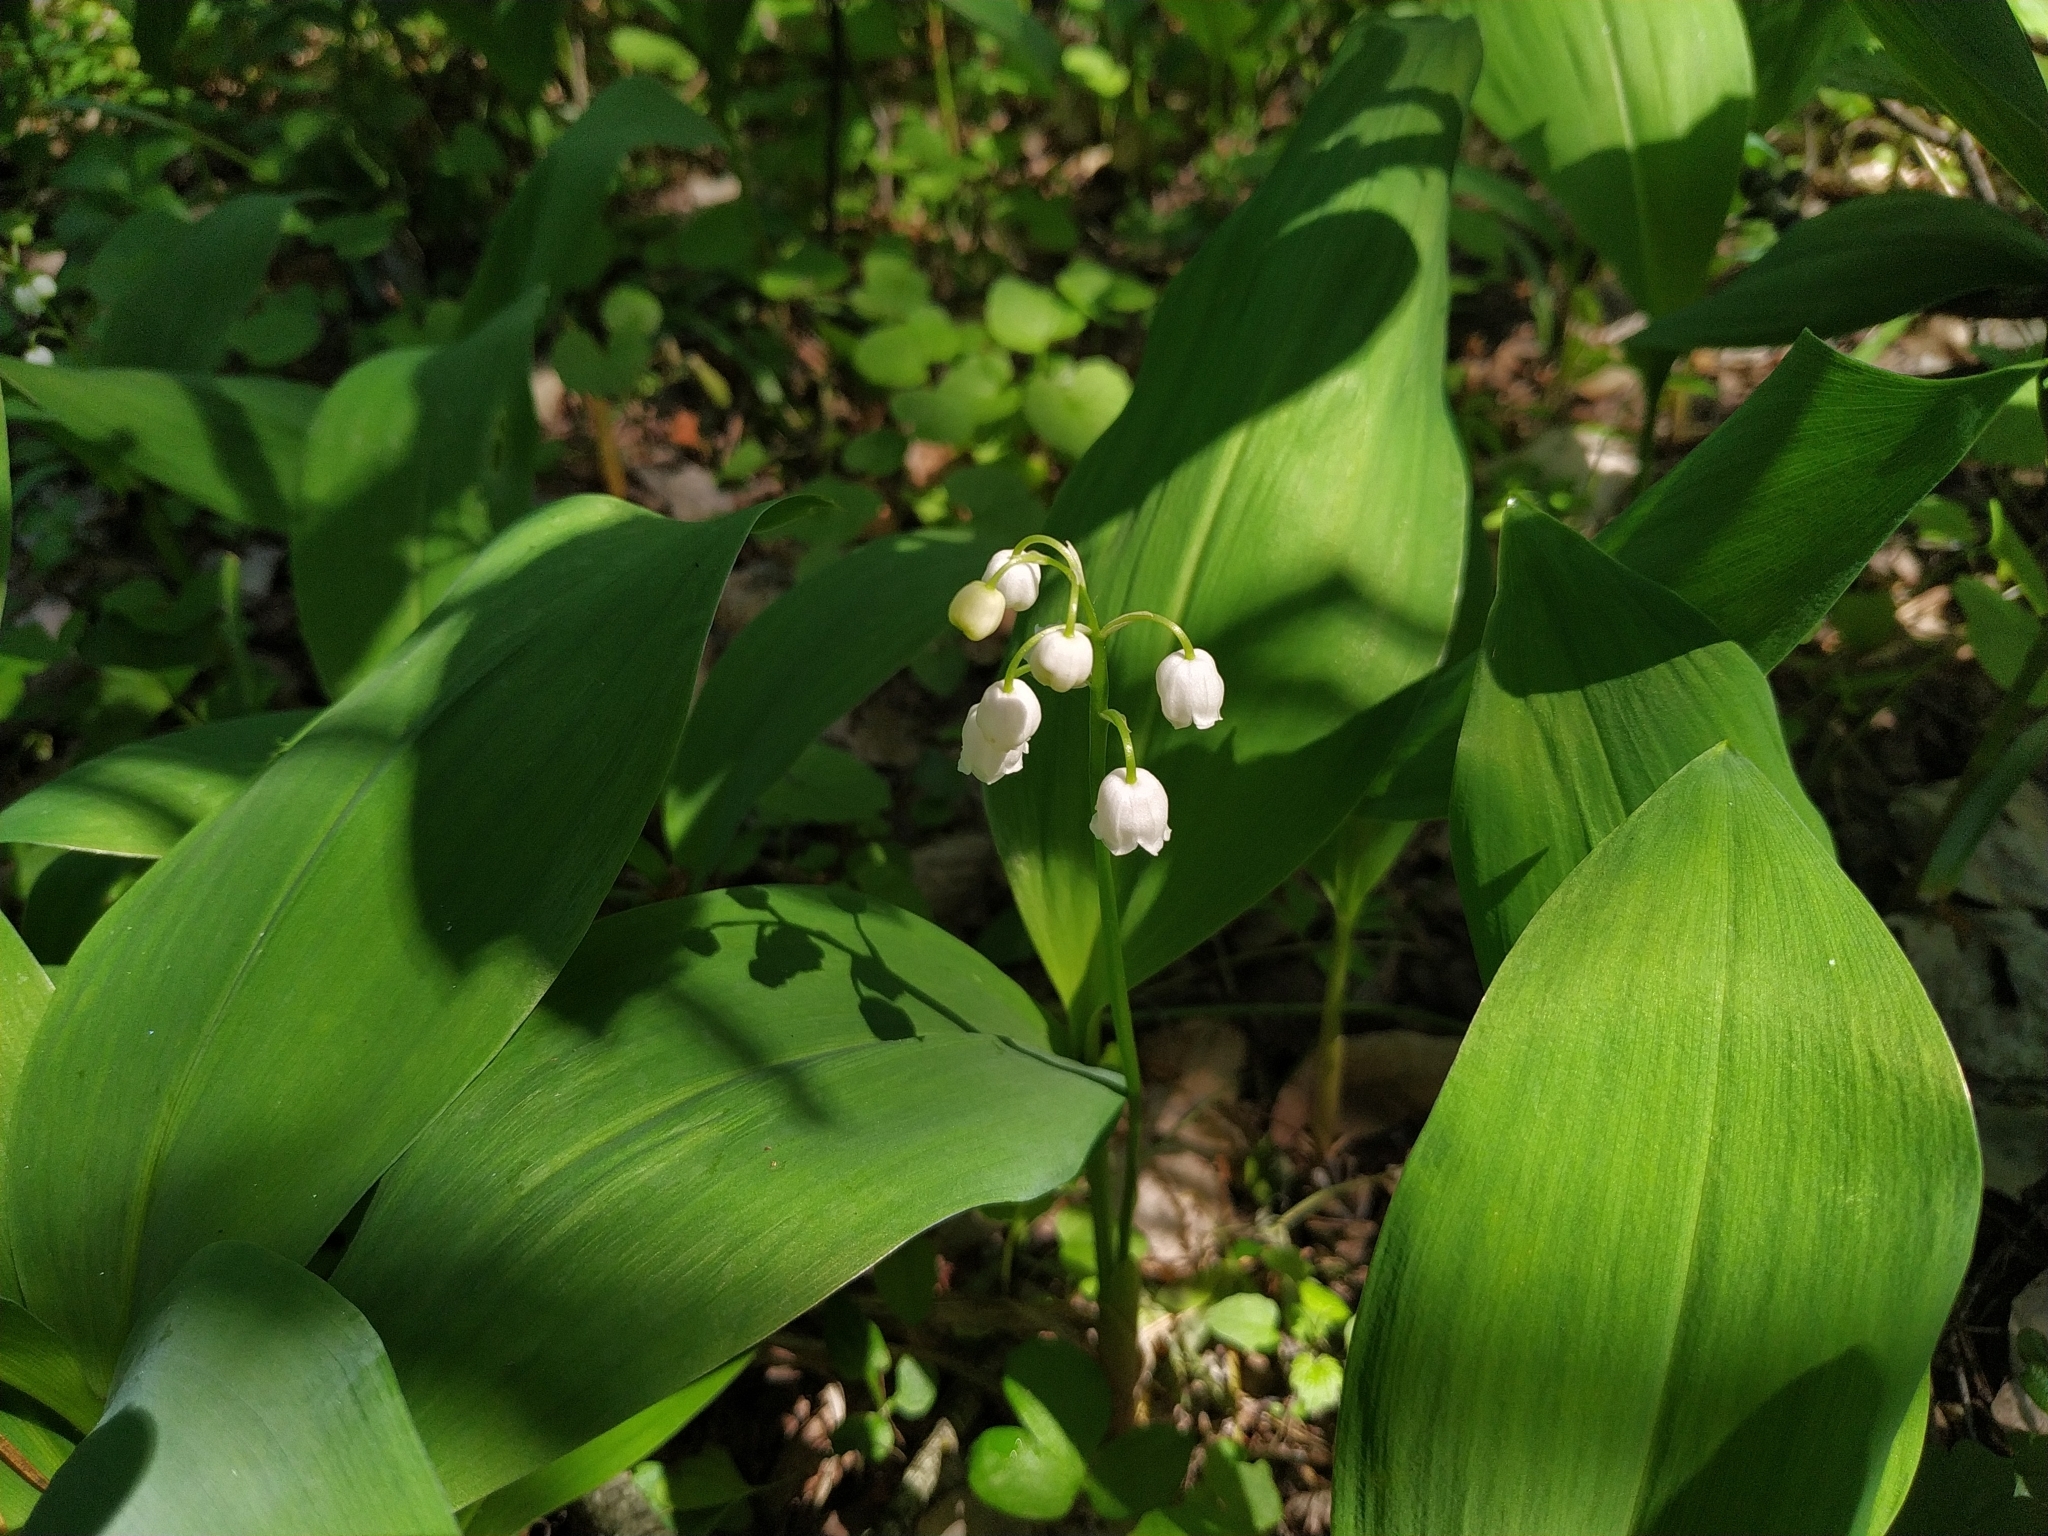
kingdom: Plantae
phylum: Tracheophyta
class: Liliopsida
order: Asparagales
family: Asparagaceae
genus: Convallaria
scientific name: Convallaria majalis
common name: Lily-of-the-valley
